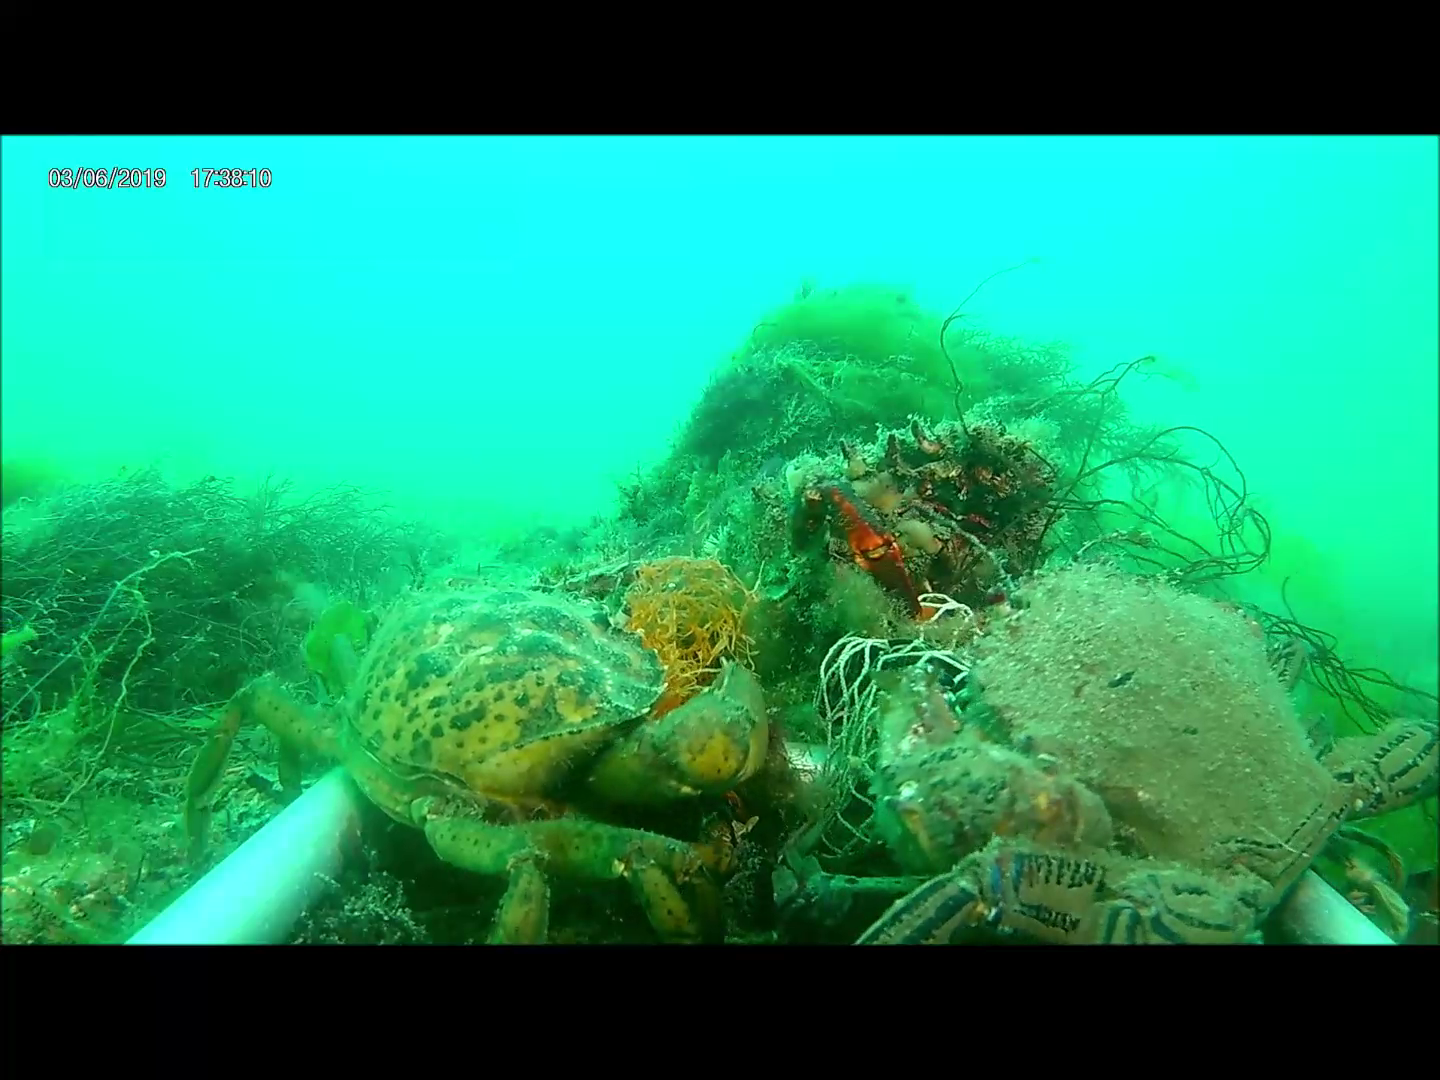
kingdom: Animalia
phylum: Arthropoda
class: Malacostraca
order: Decapoda
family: Majidae
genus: Maja
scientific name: Maja brachydactyla
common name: Common spider crab
